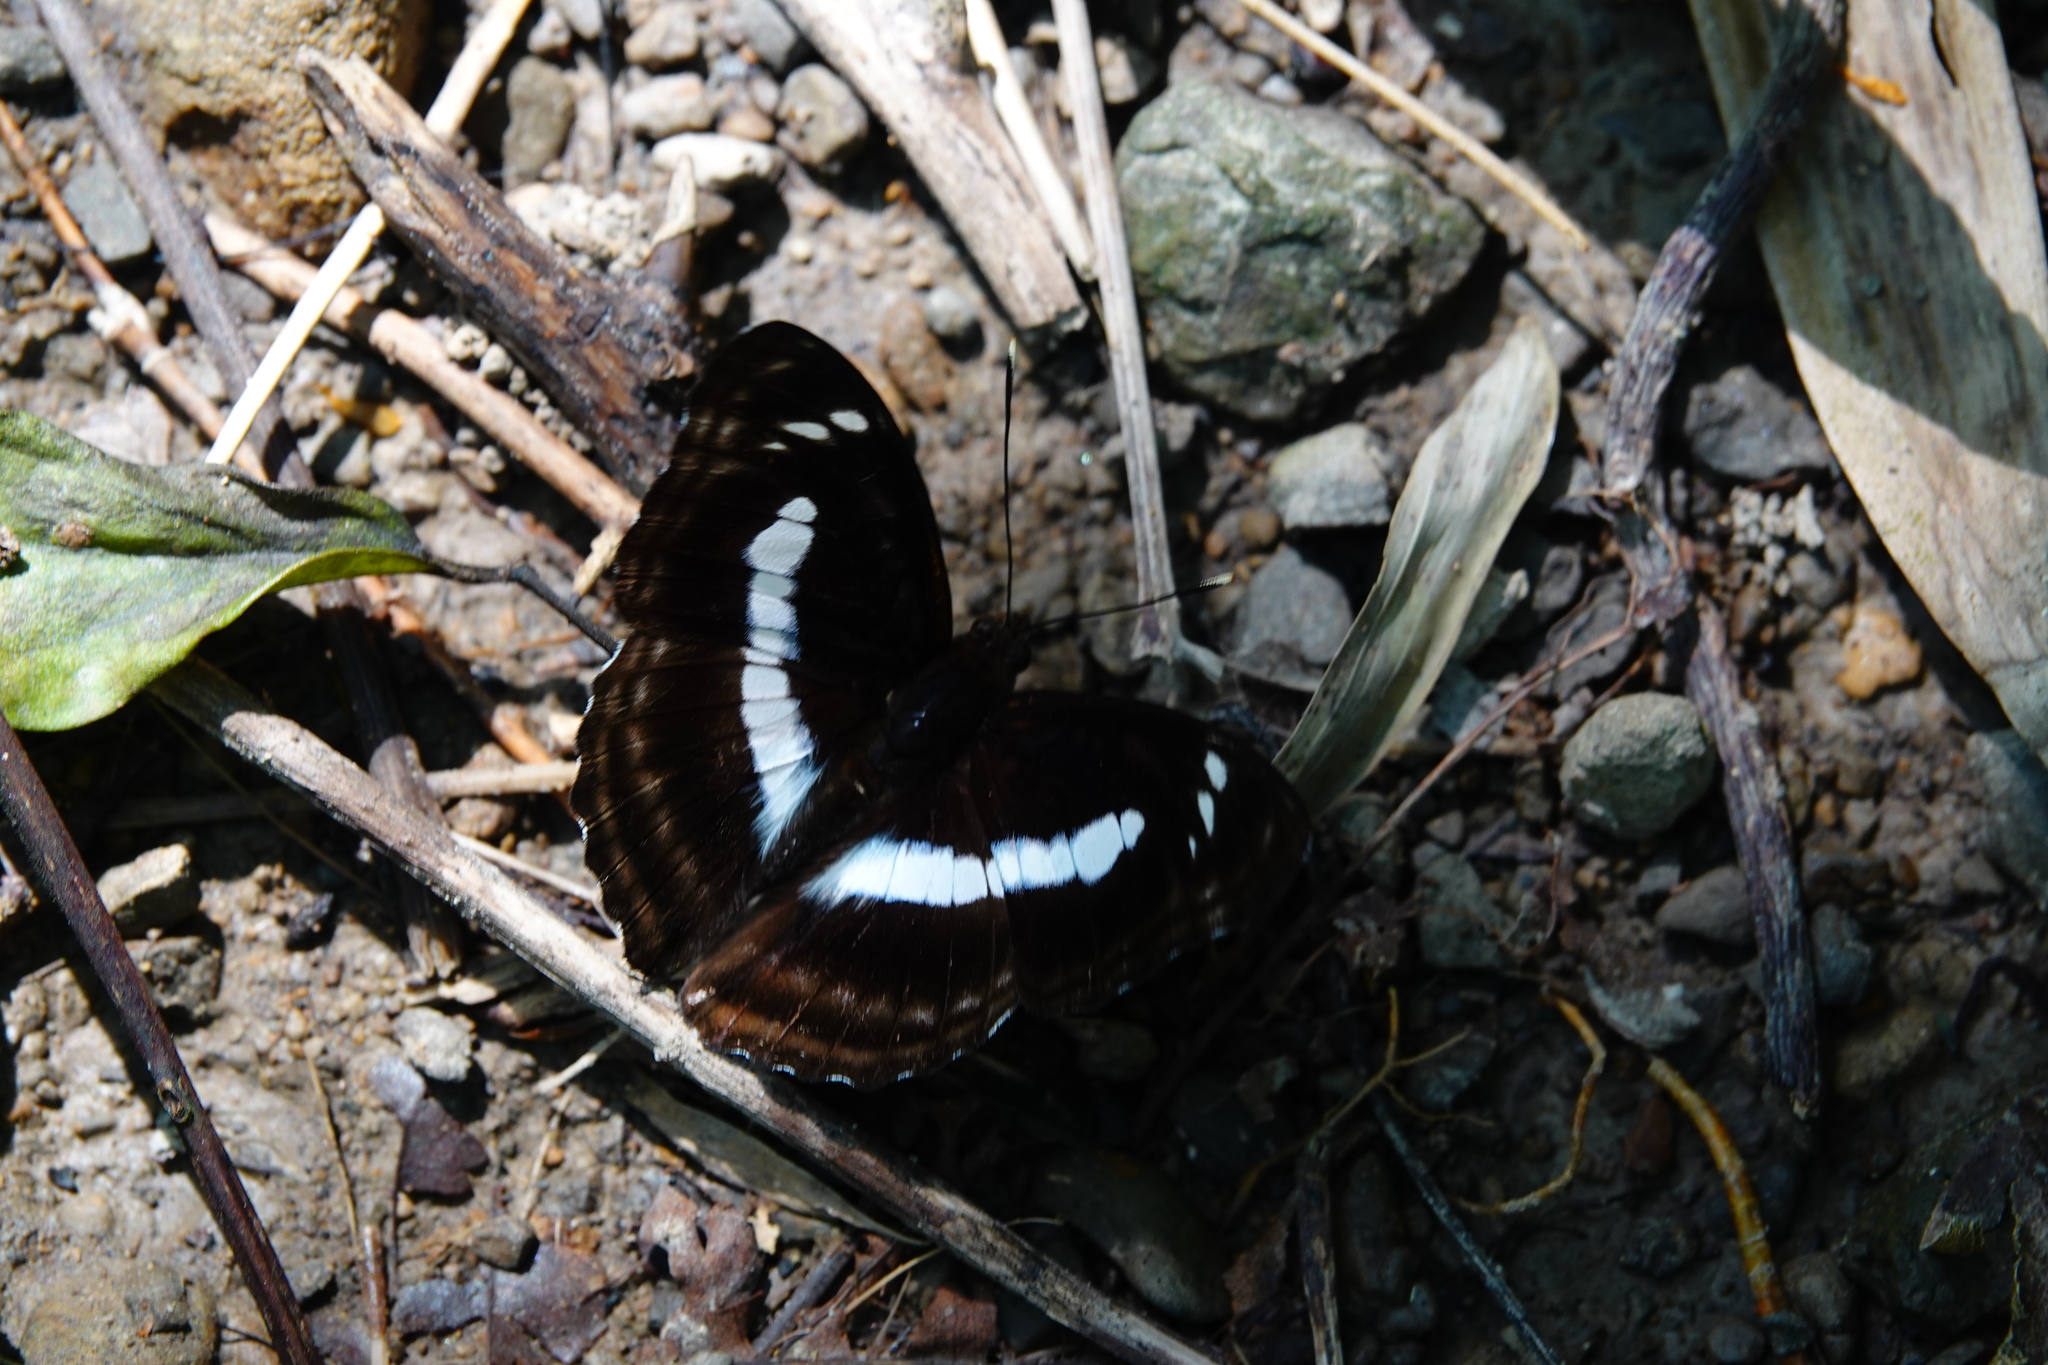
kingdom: Animalia
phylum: Arthropoda
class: Insecta
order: Lepidoptera
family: Nymphalidae
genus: Parathyma
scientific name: Parathyma selenophora
